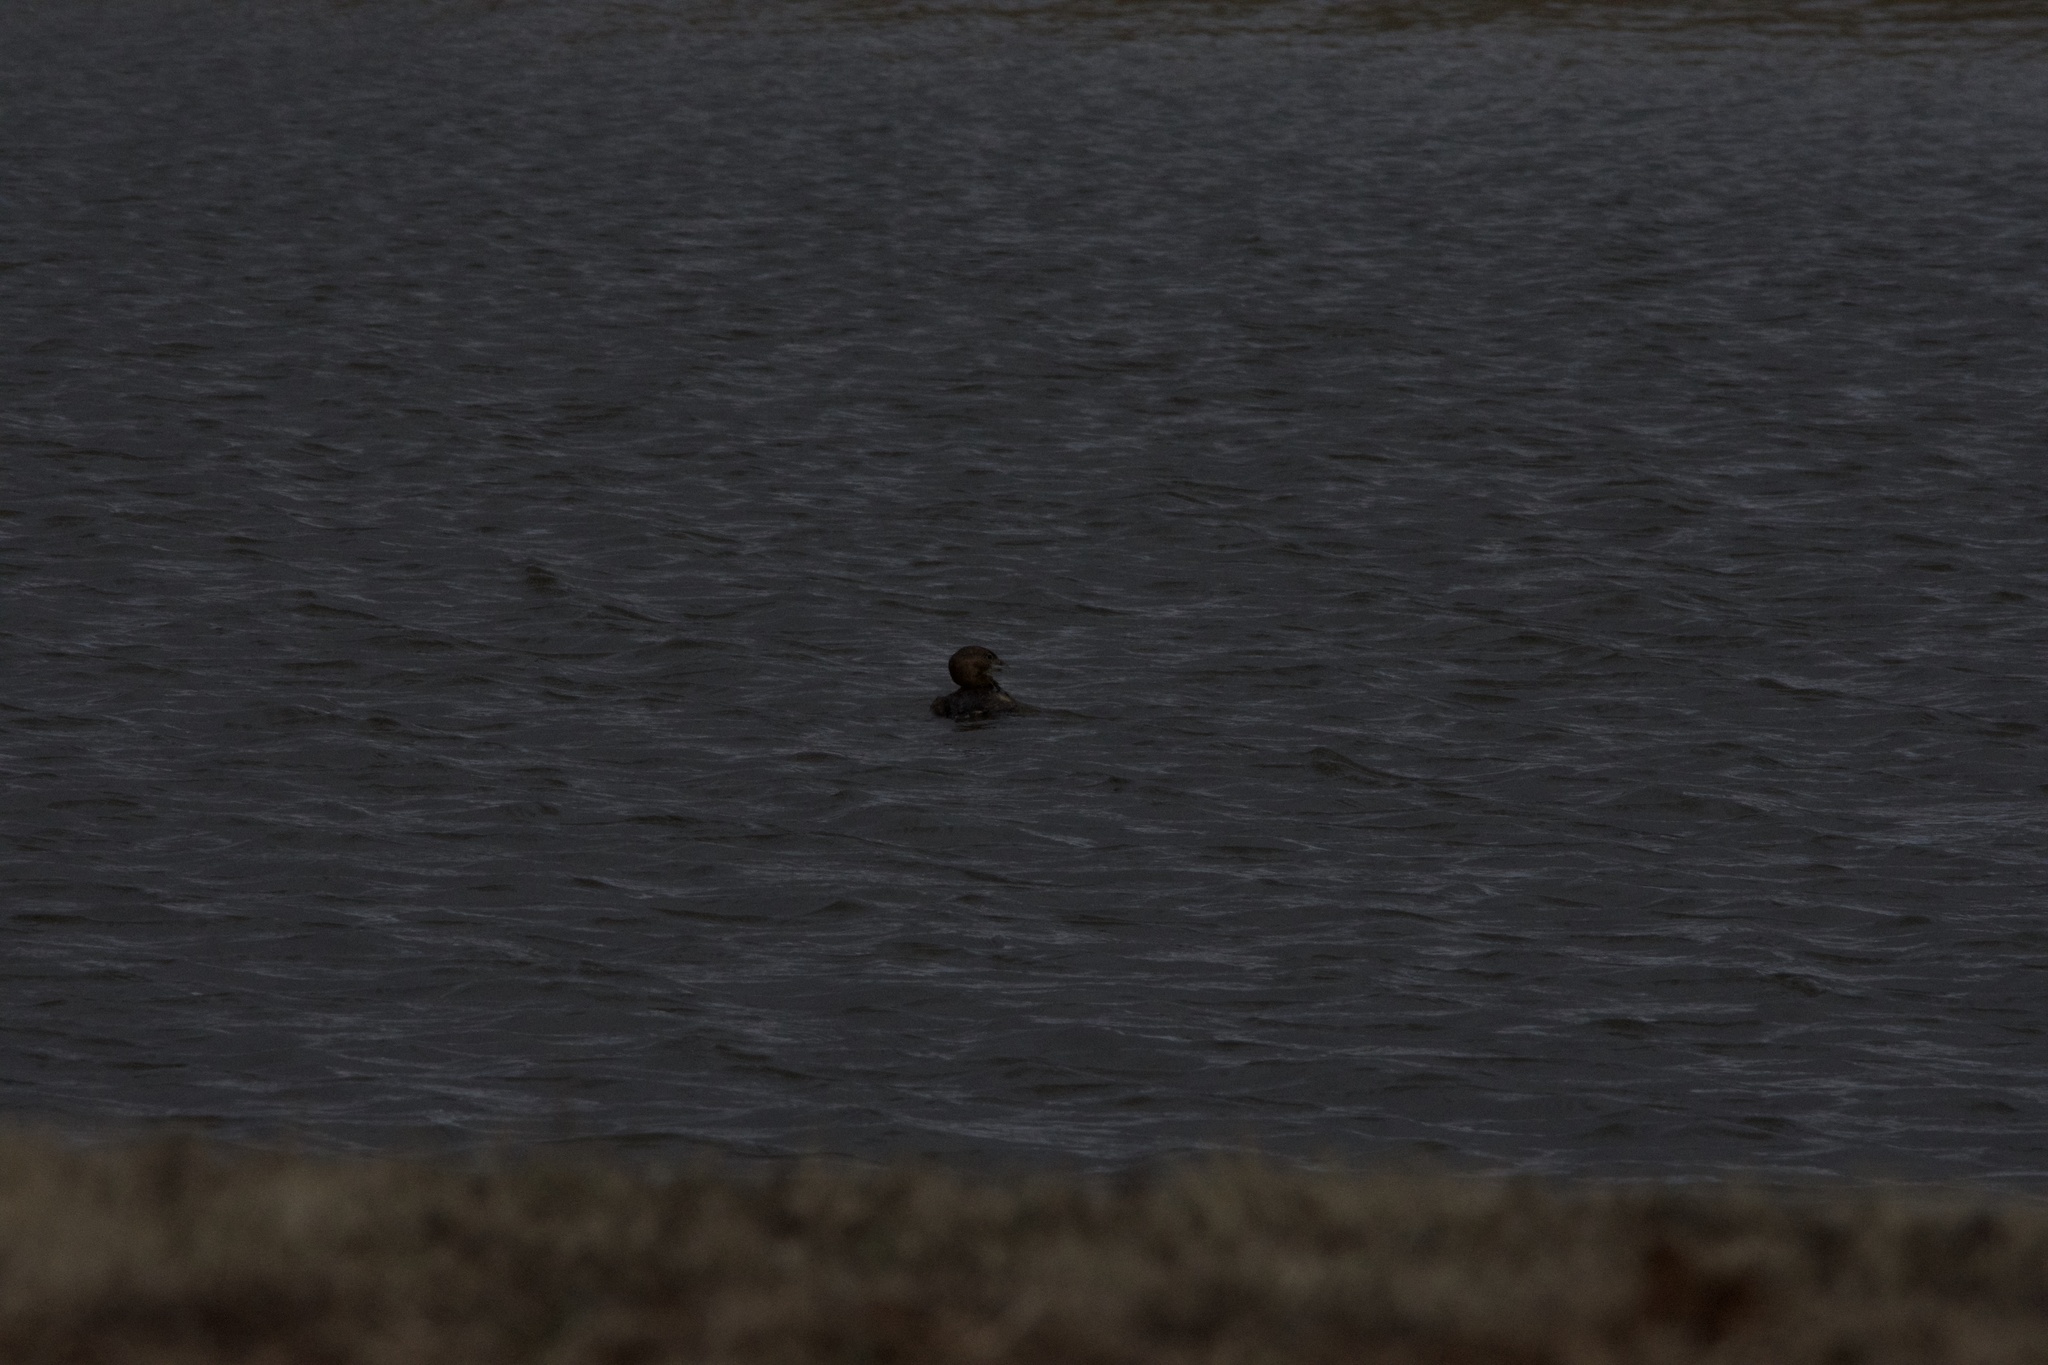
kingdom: Animalia
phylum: Chordata
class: Aves
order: Podicipediformes
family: Podicipedidae
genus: Podilymbus
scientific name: Podilymbus podiceps
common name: Pied-billed grebe
